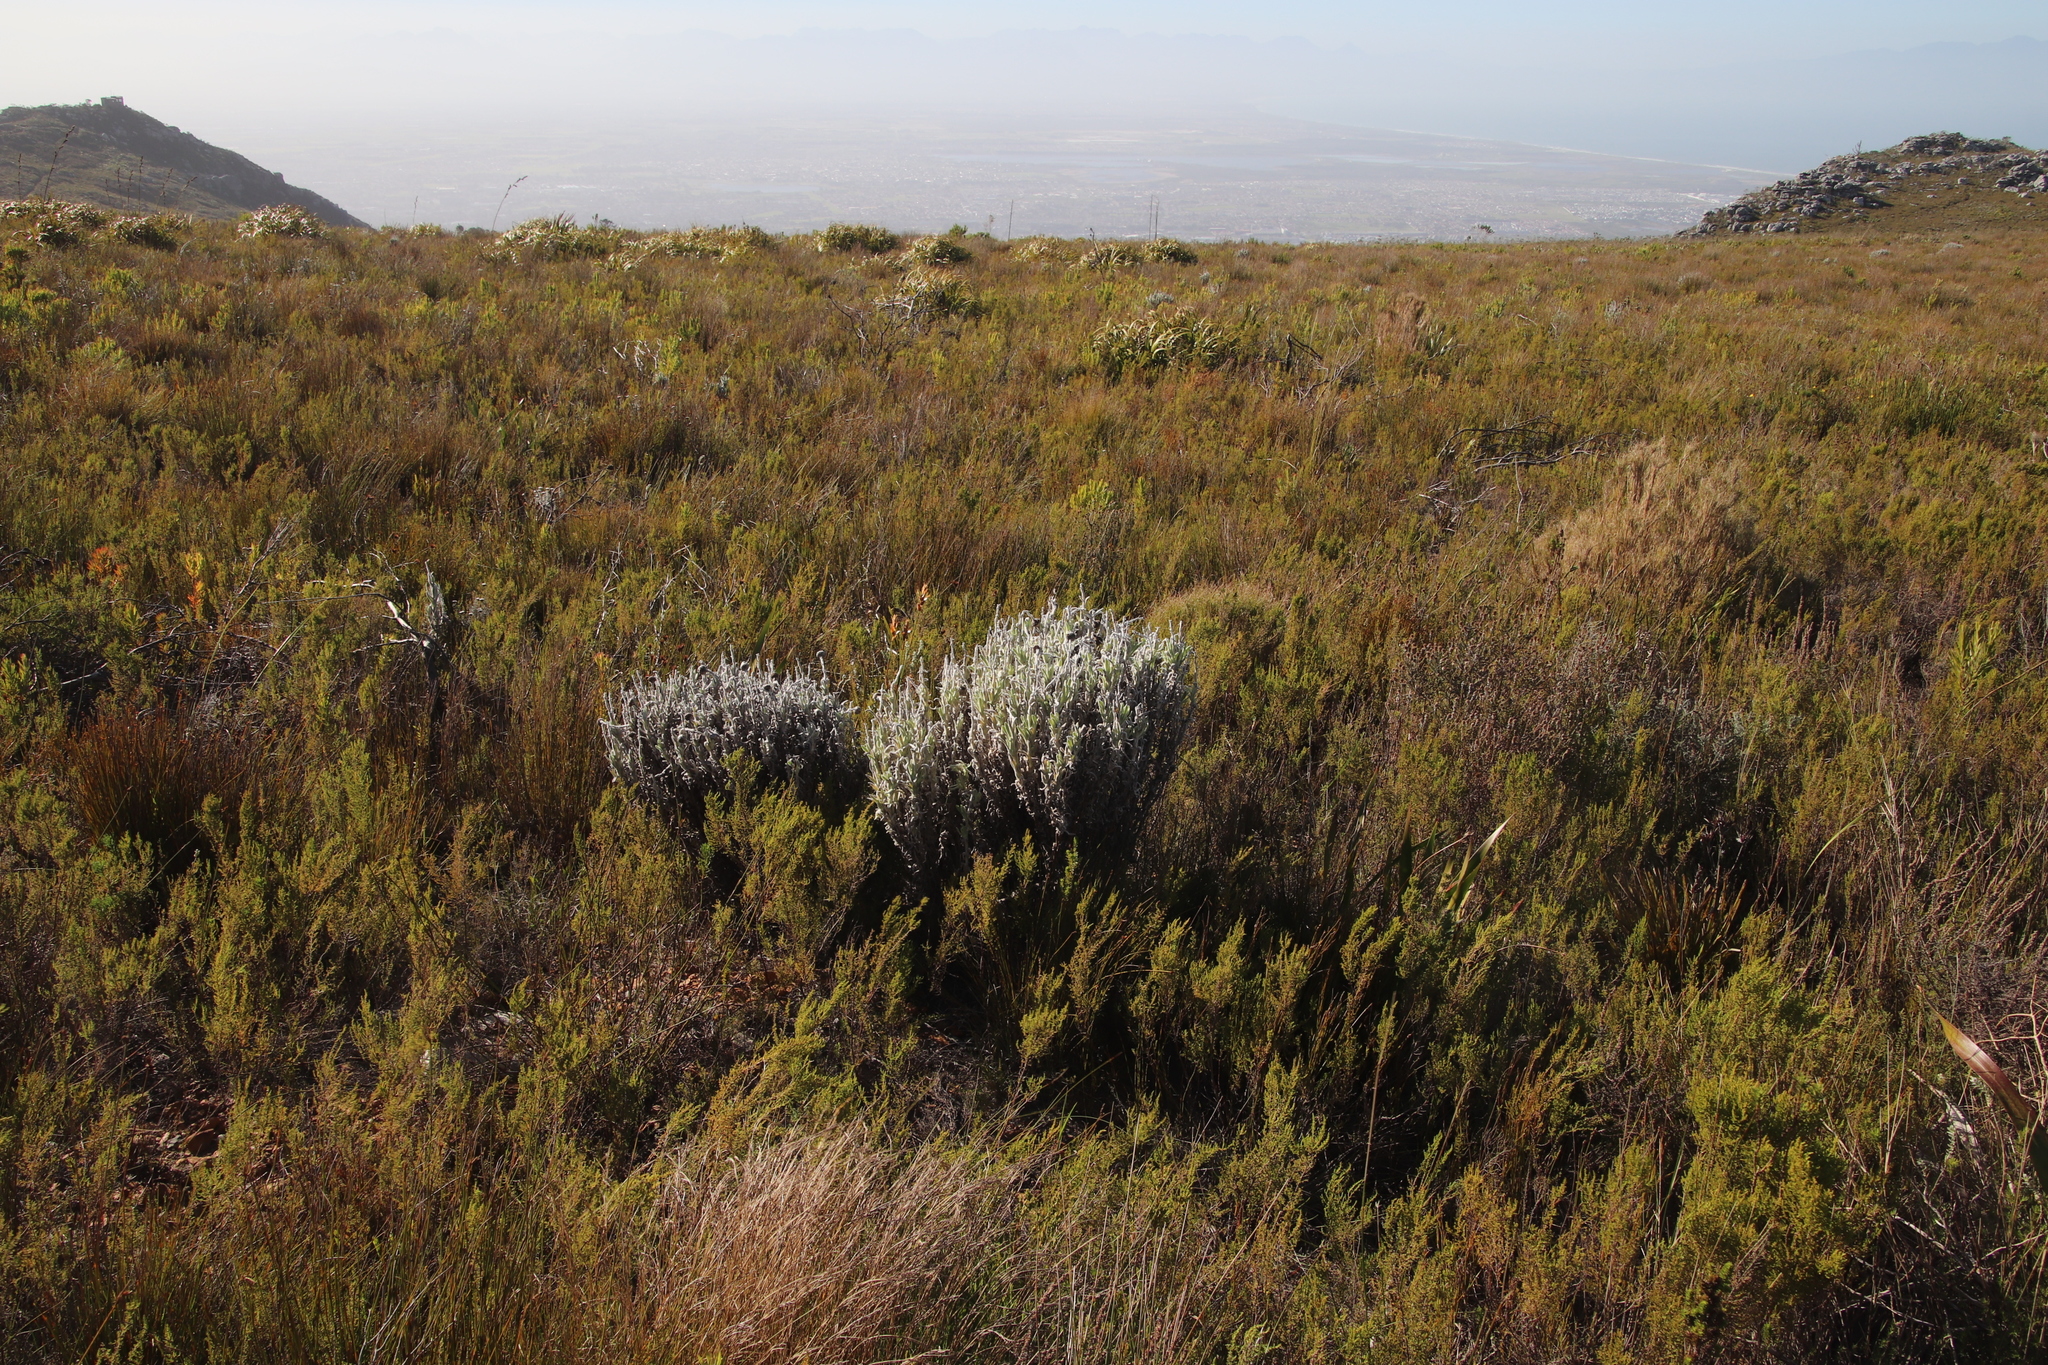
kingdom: Plantae
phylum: Tracheophyta
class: Magnoliopsida
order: Asterales
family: Asteraceae
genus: Syncarpha
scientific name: Syncarpha vestita
